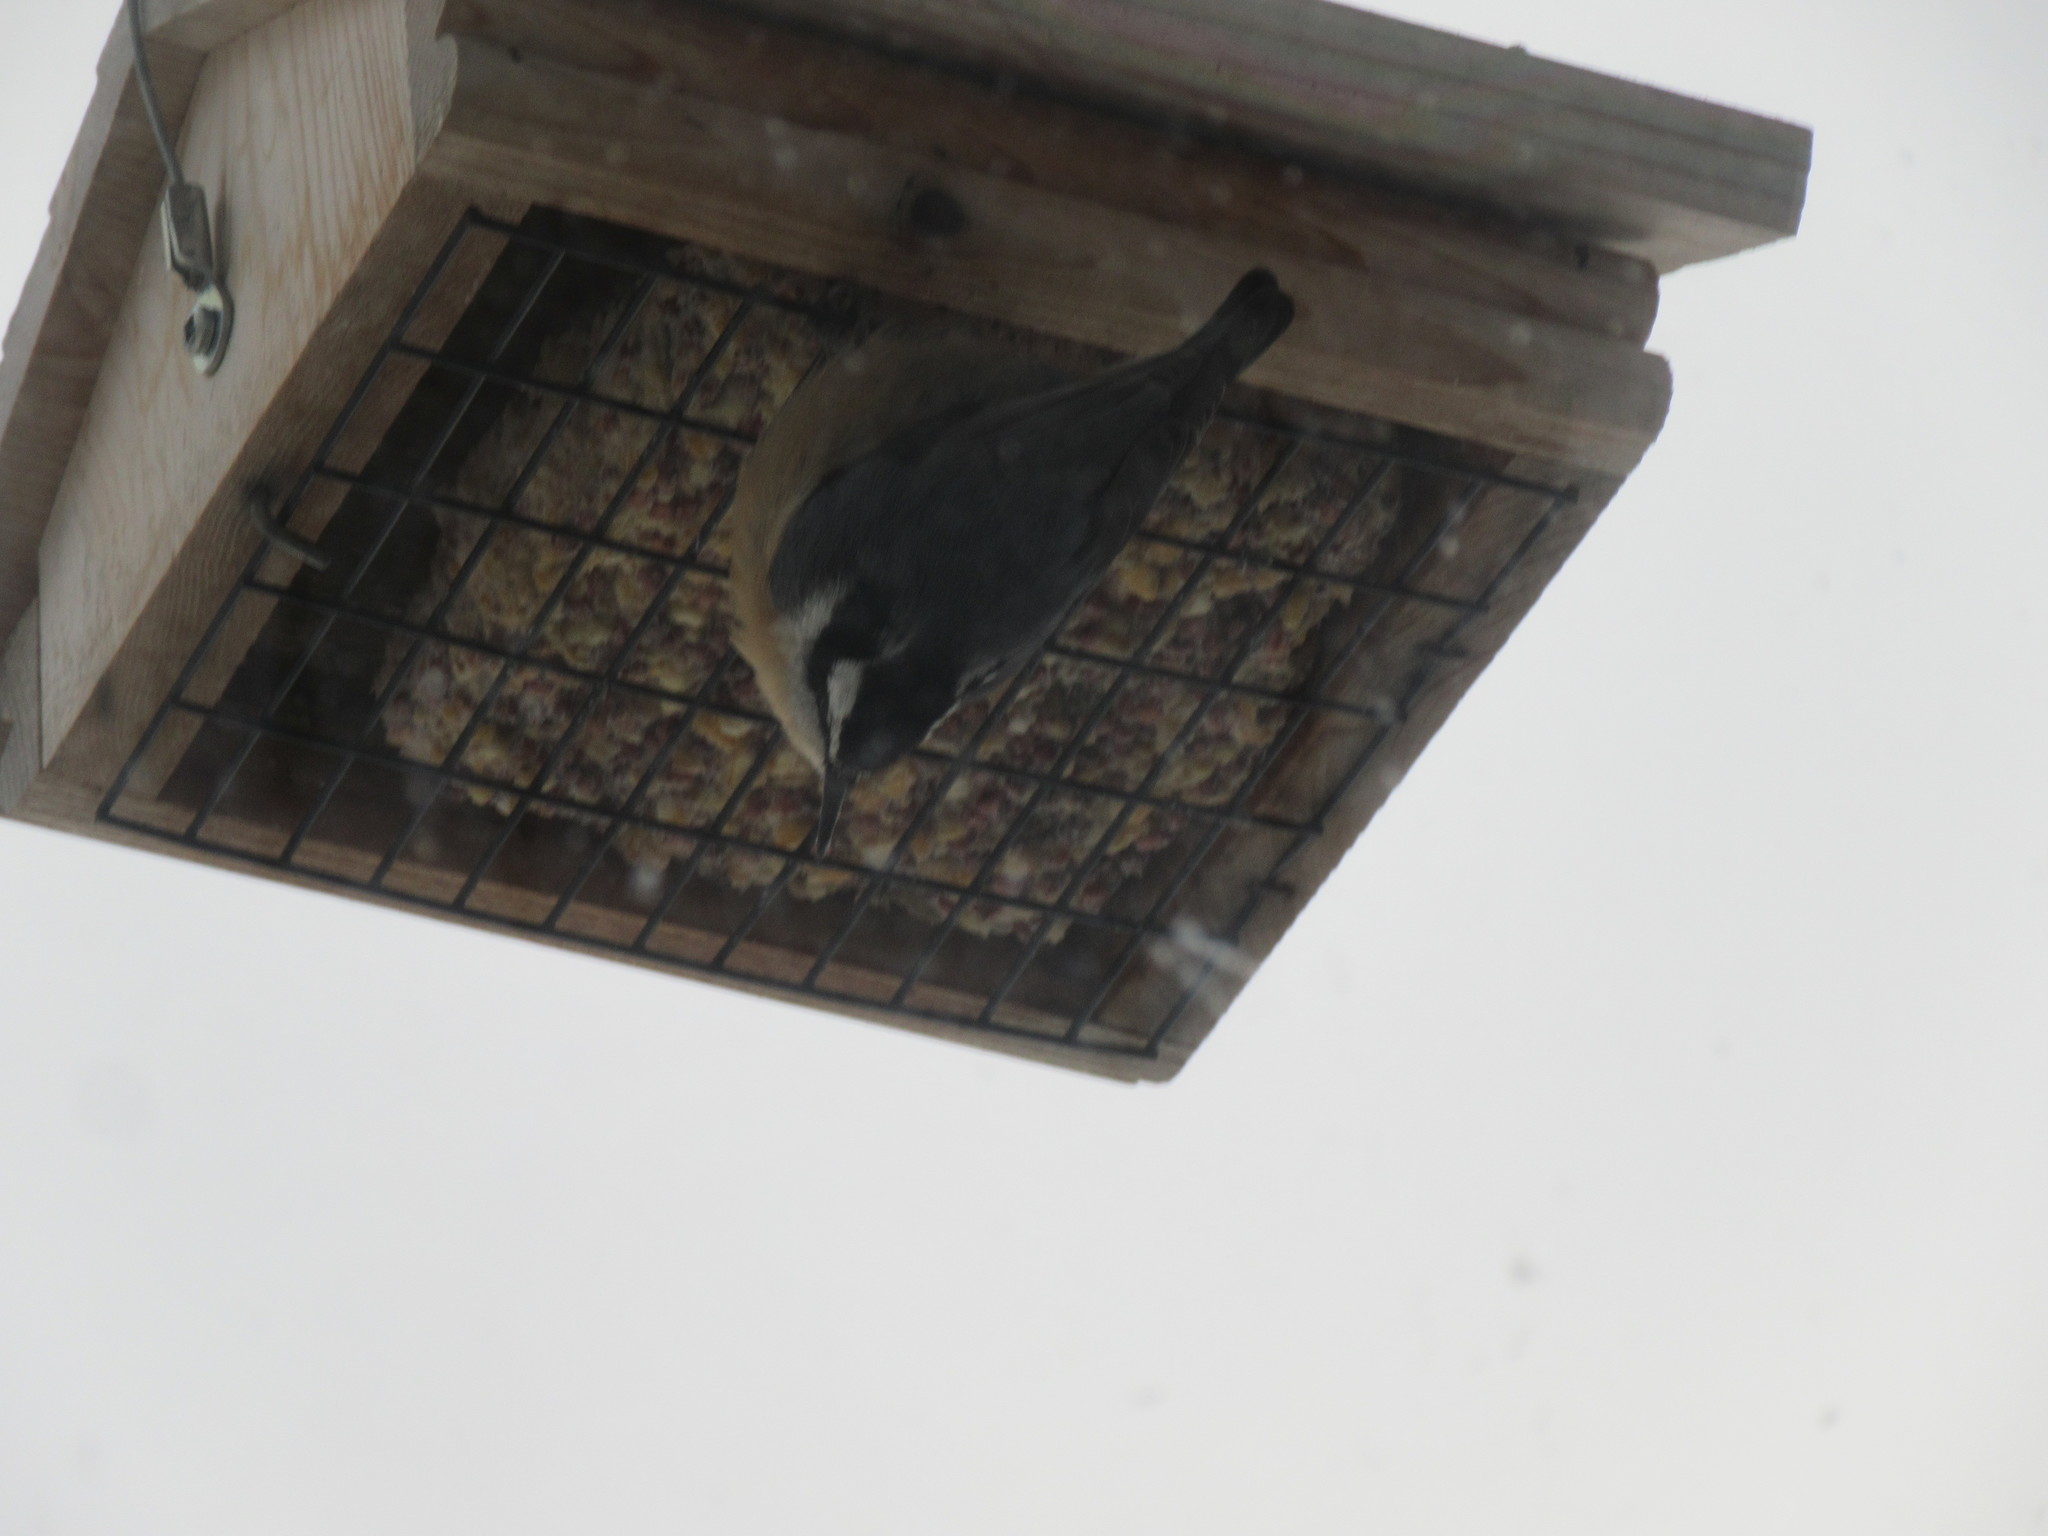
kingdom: Animalia
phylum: Chordata
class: Aves
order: Passeriformes
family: Sittidae
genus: Sitta
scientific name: Sitta canadensis
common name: Red-breasted nuthatch
